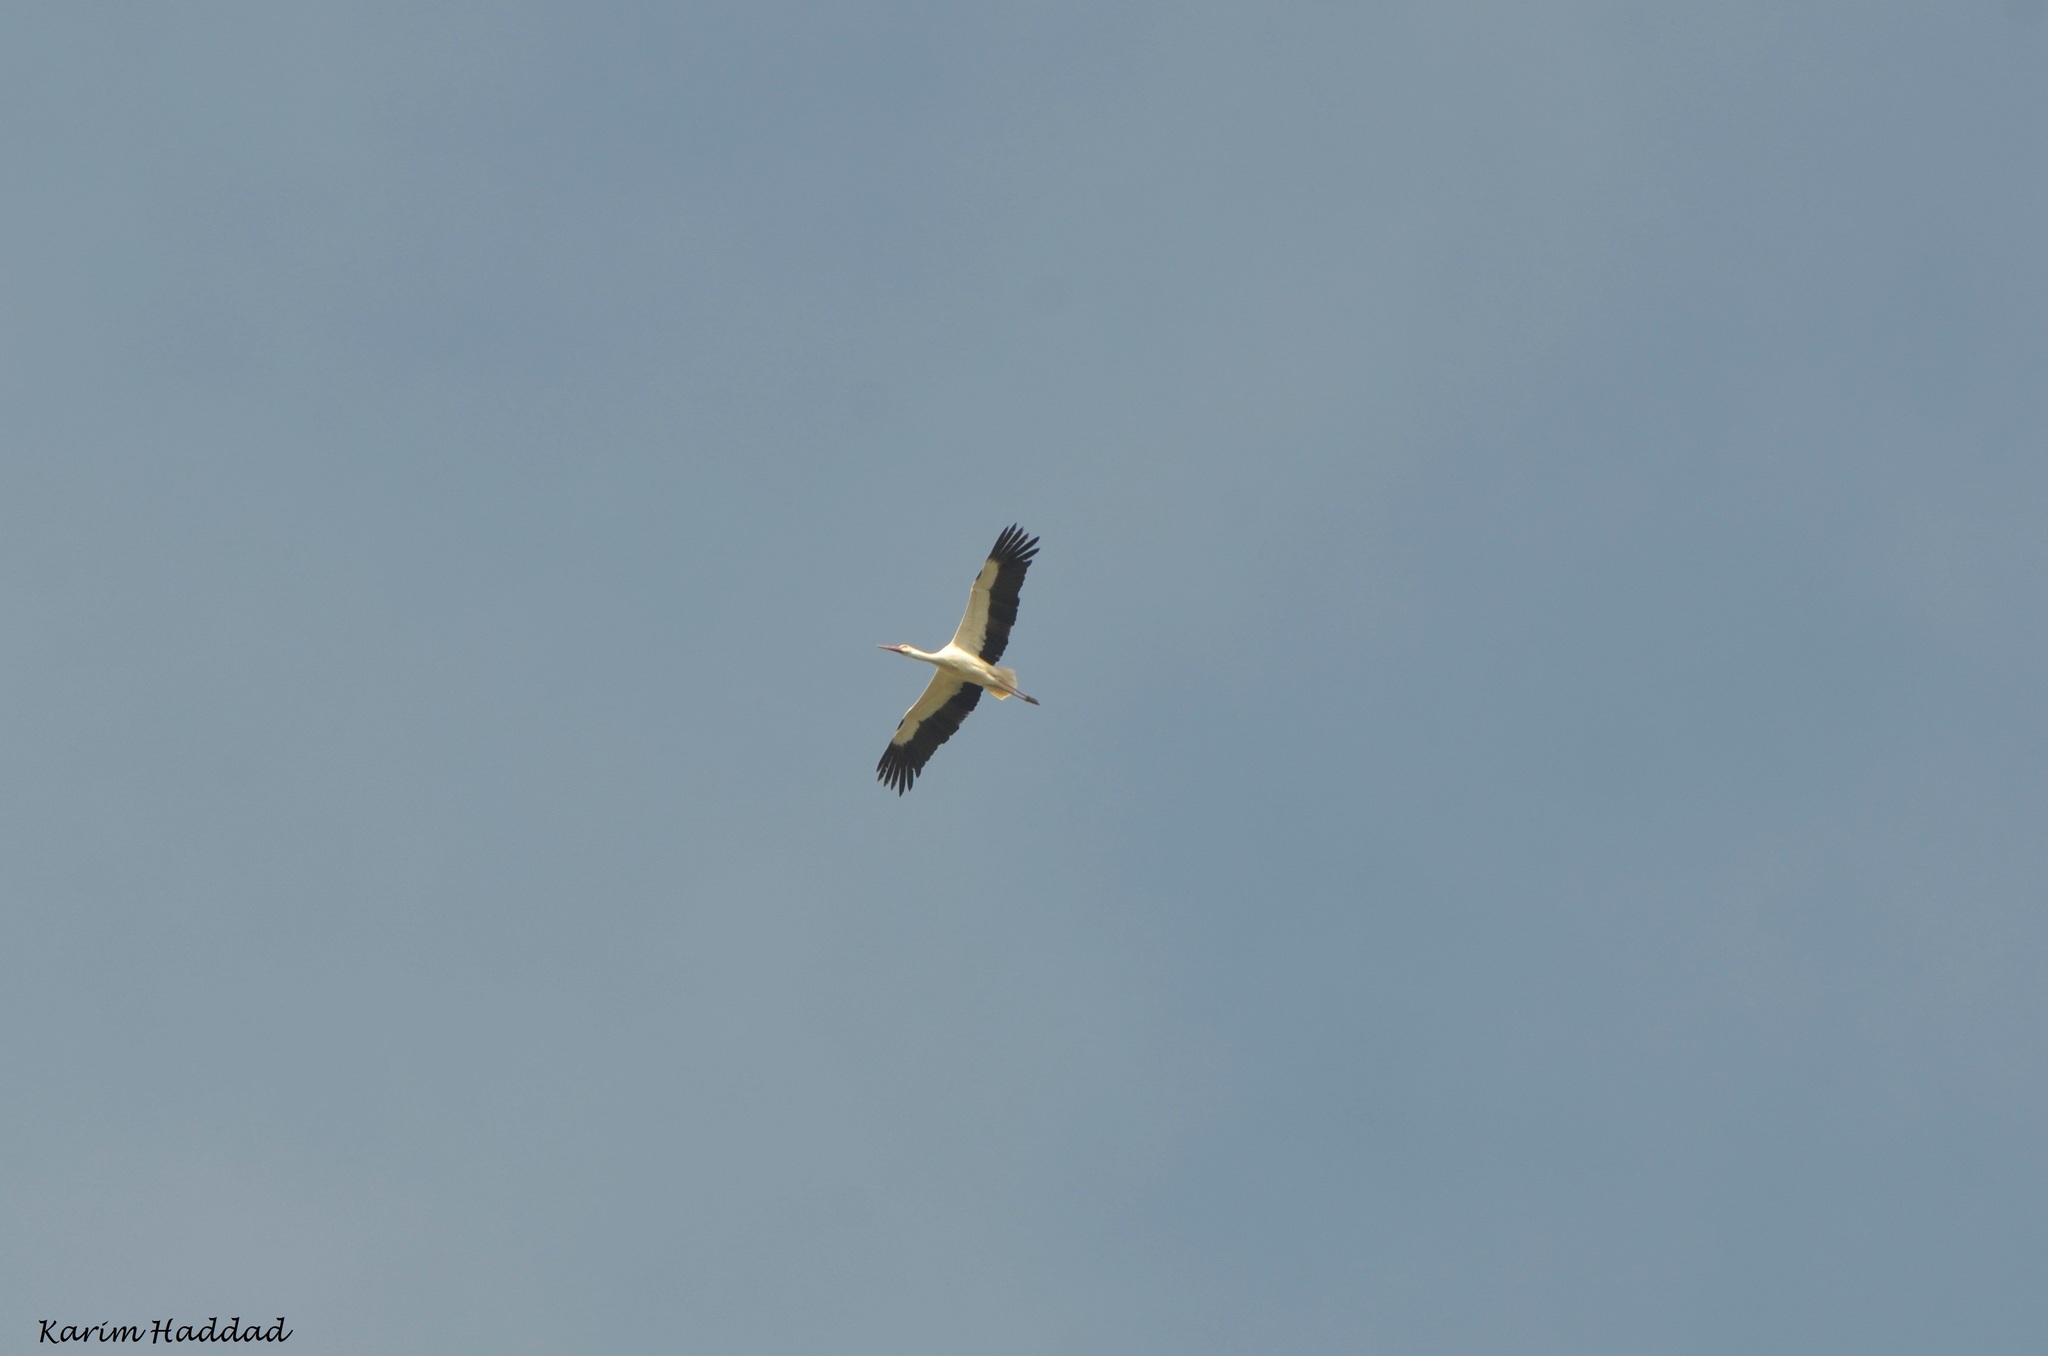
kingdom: Animalia
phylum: Chordata
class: Aves
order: Ciconiiformes
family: Ciconiidae
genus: Ciconia
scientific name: Ciconia ciconia
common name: White stork
